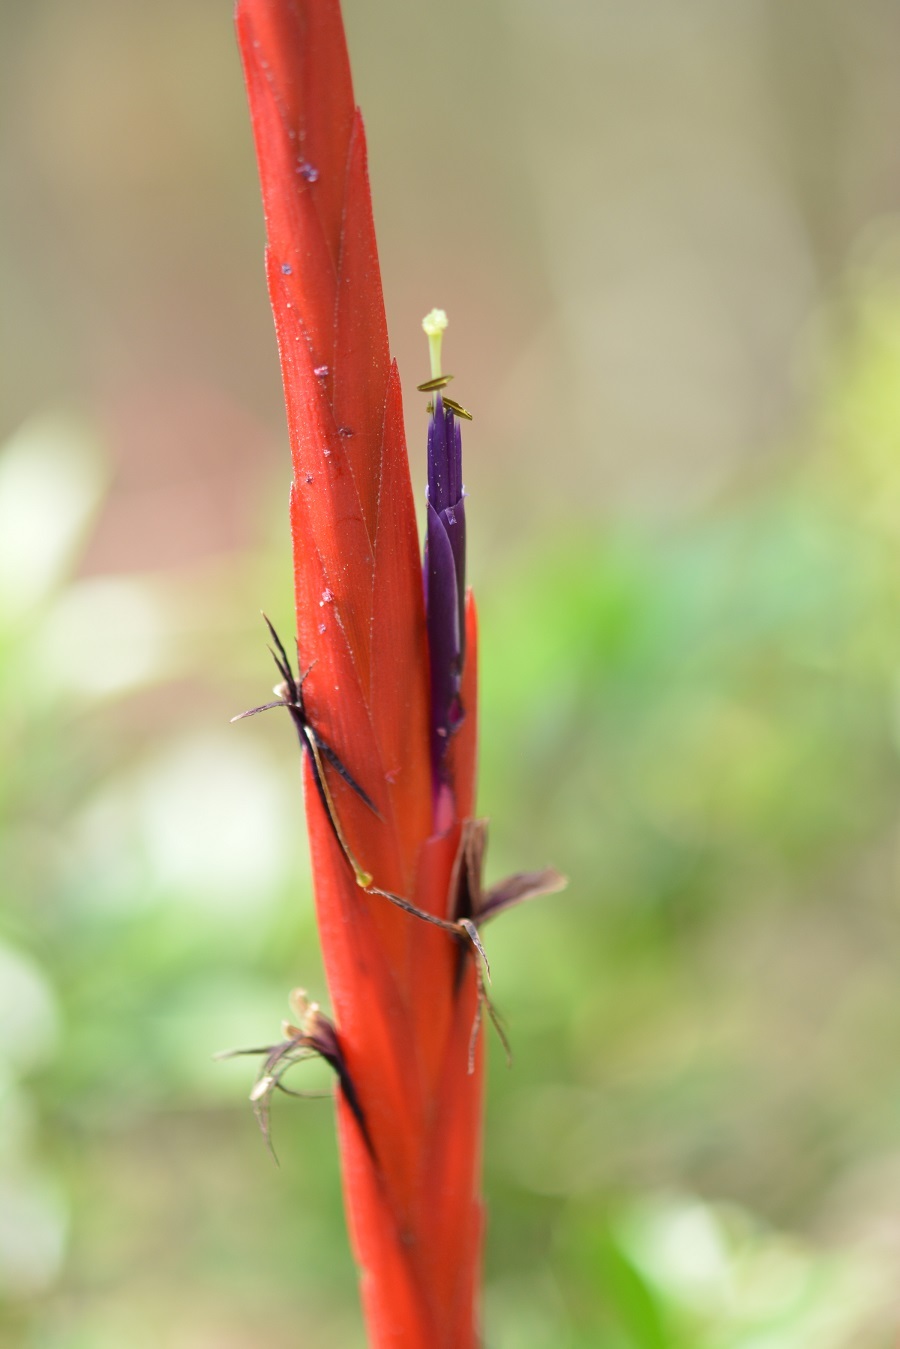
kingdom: Plantae
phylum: Tracheophyta
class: Liliopsida
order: Poales
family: Bromeliaceae
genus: Tillandsia
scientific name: Tillandsia flabellata
